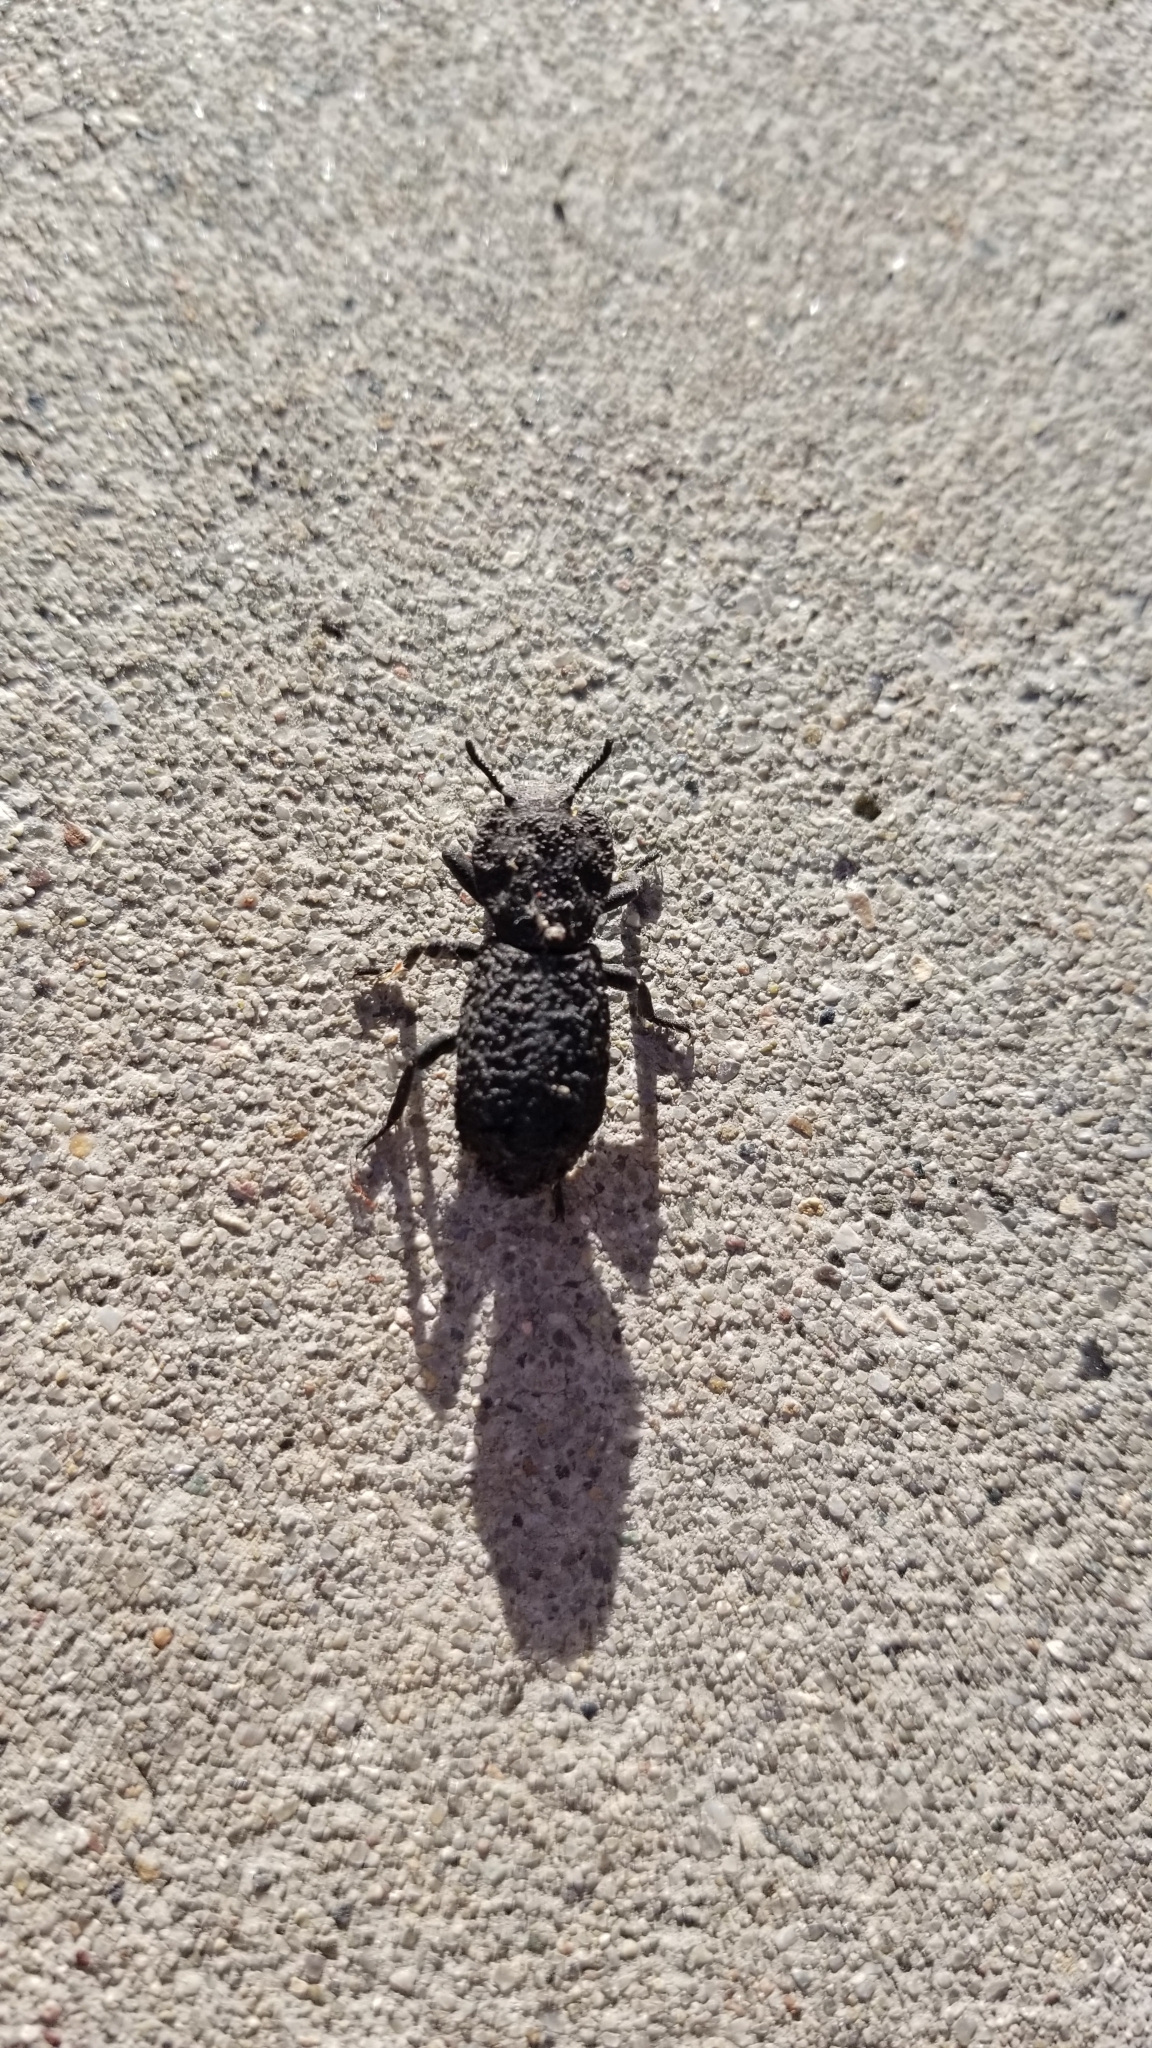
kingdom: Animalia
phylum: Arthropoda
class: Insecta
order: Coleoptera
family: Zopheridae
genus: Phloeodes
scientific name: Phloeodes diabolicus
